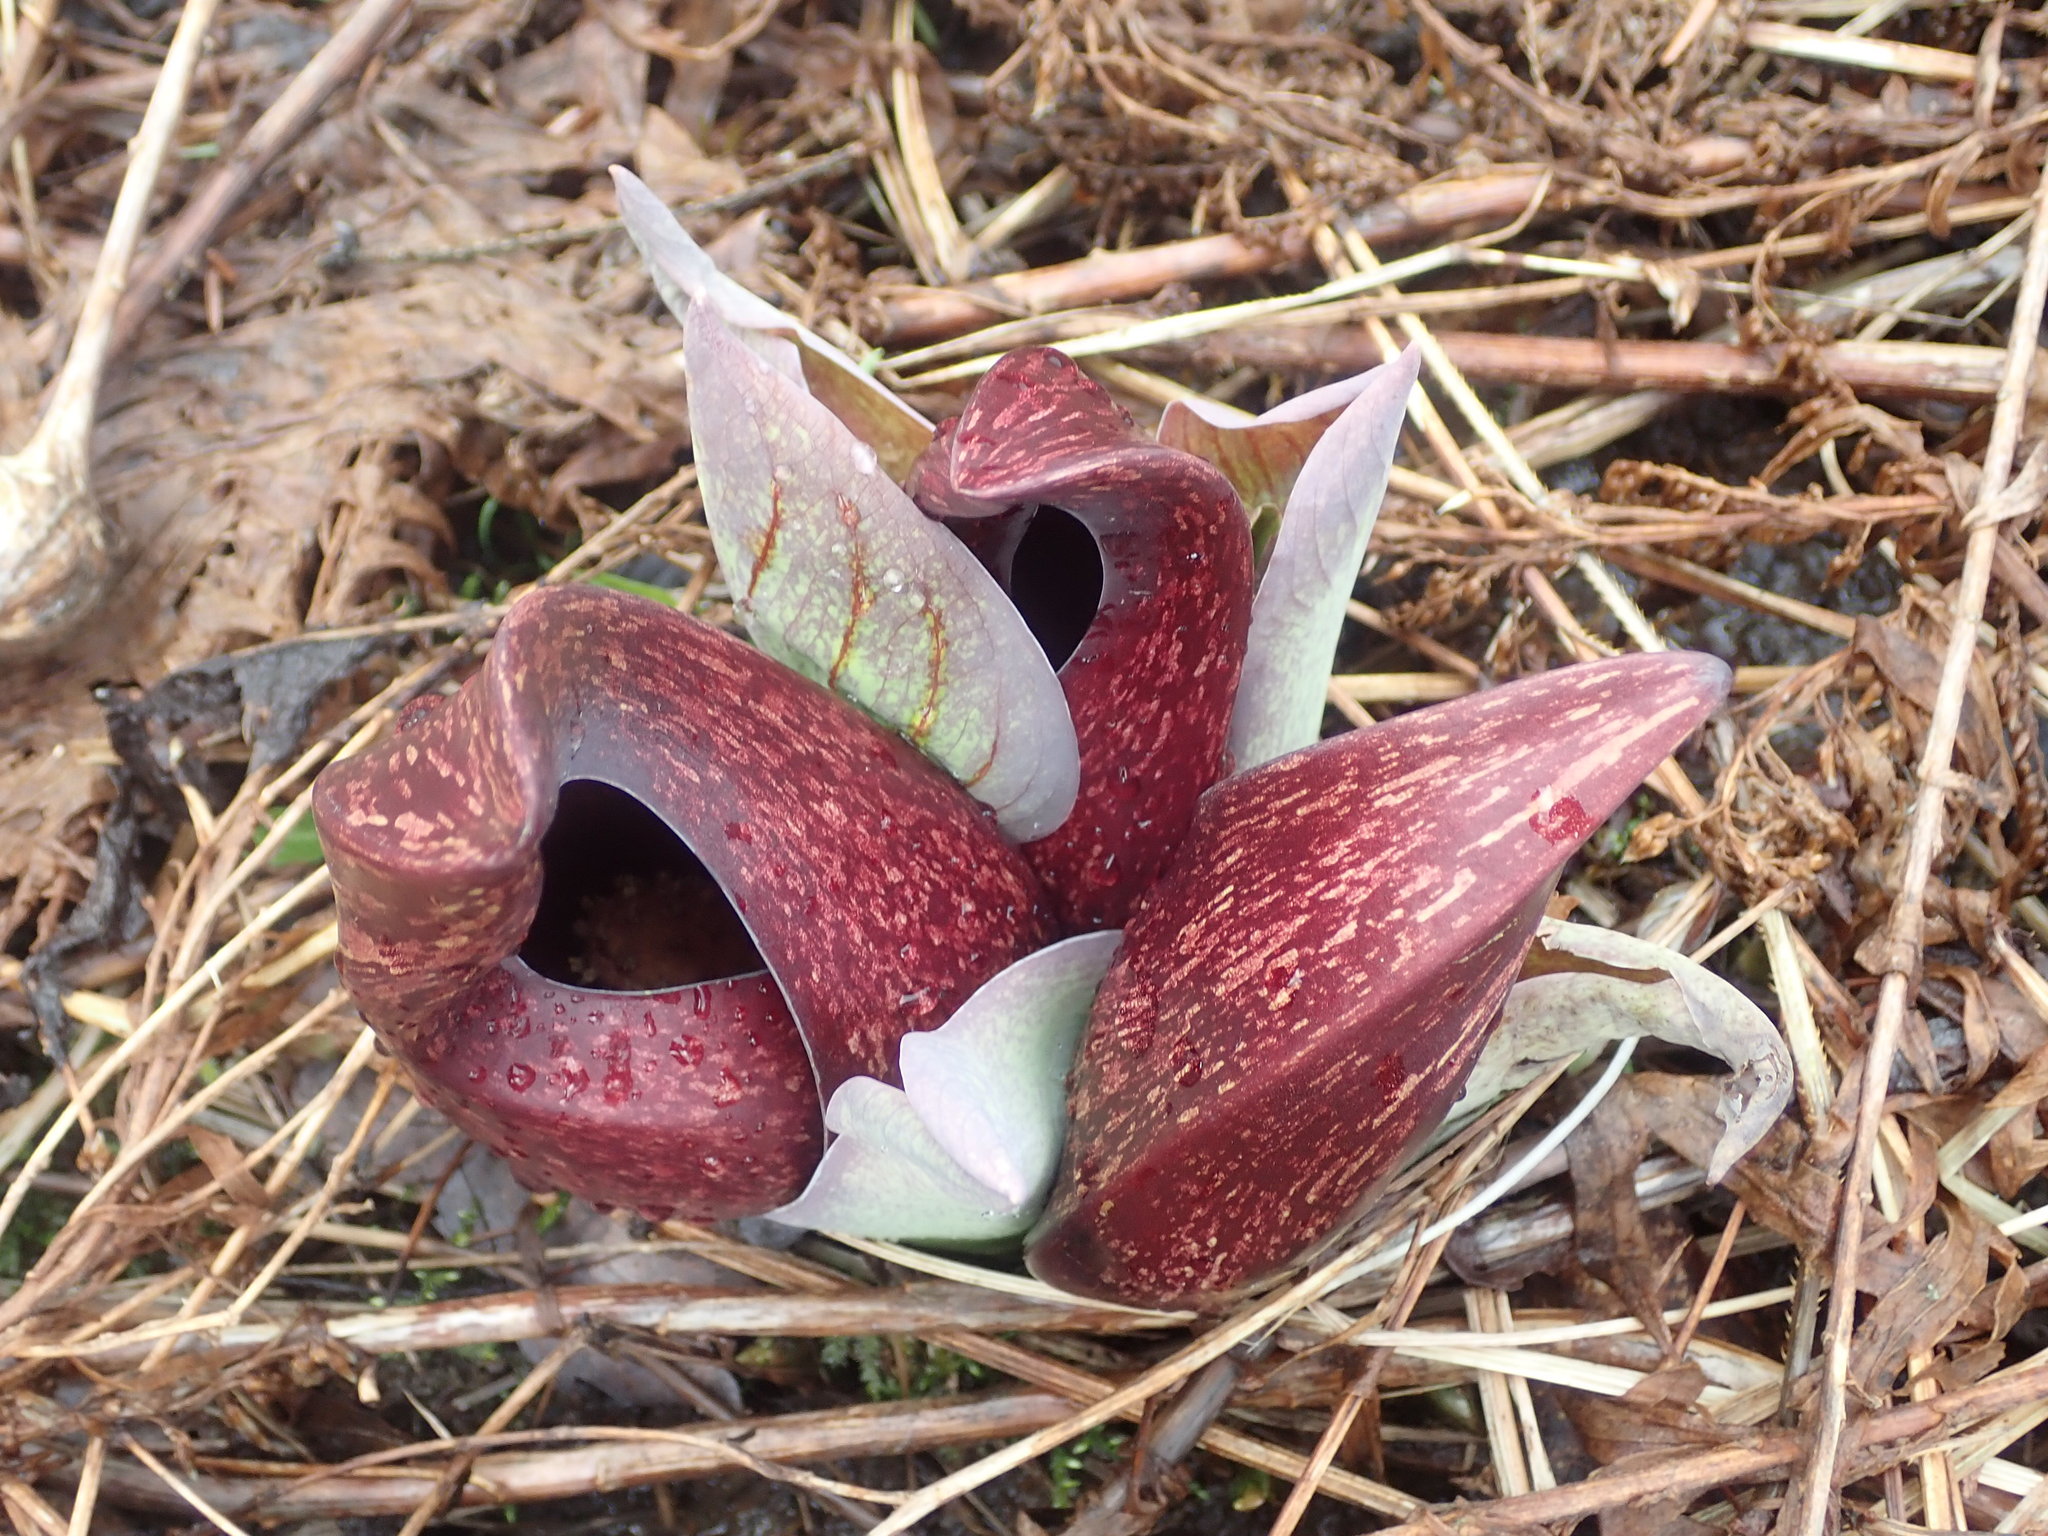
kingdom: Plantae
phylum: Tracheophyta
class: Liliopsida
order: Alismatales
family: Araceae
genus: Symplocarpus
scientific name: Symplocarpus foetidus
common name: Eastern skunk cabbage
